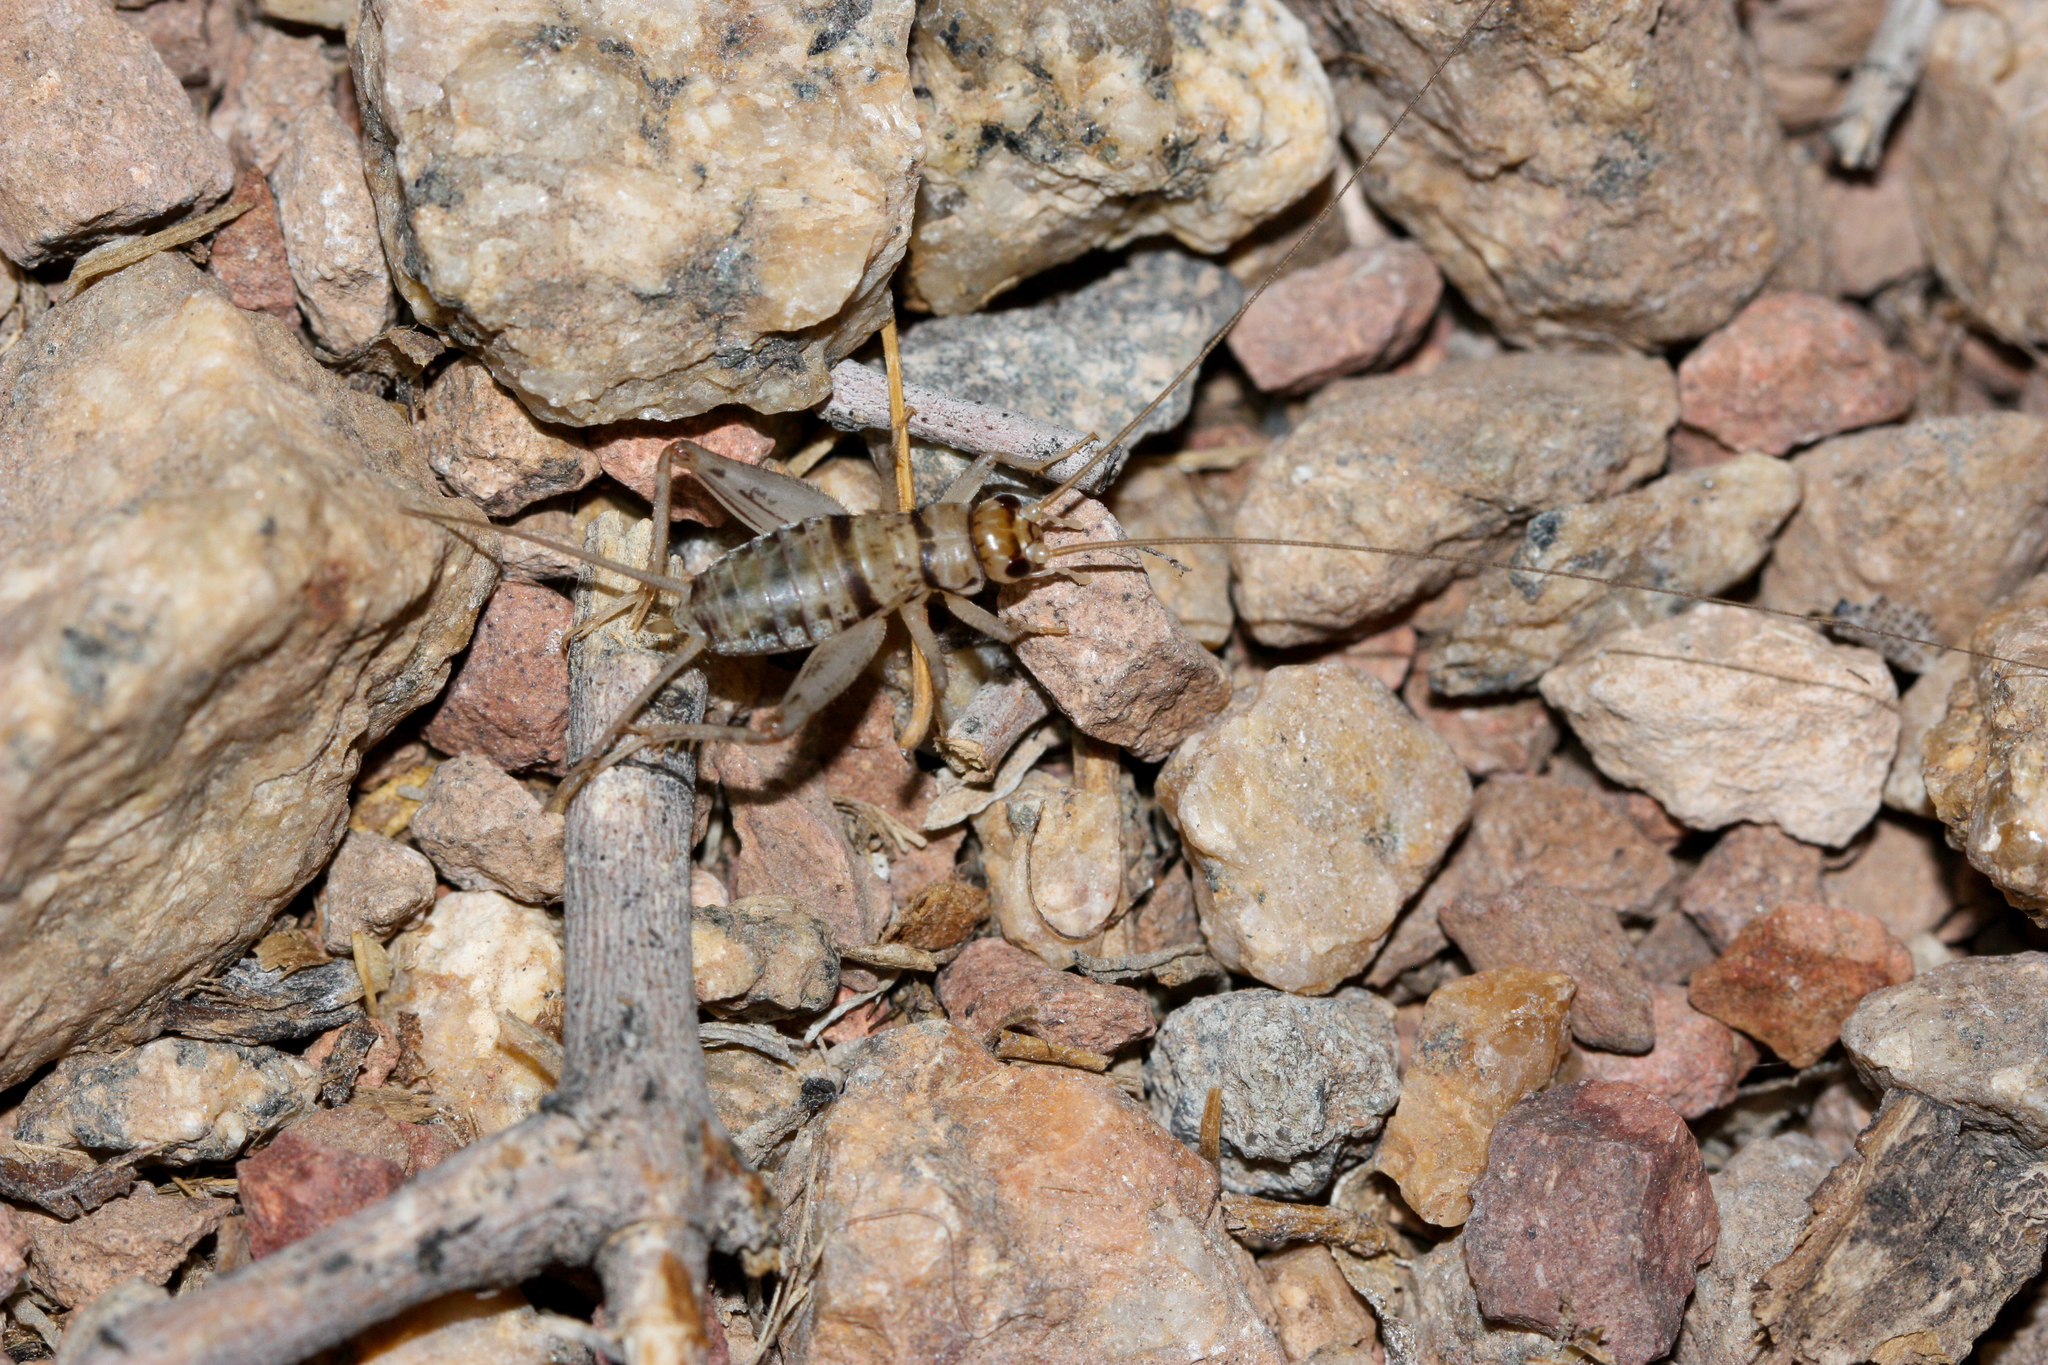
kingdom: Animalia
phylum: Arthropoda
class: Insecta
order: Orthoptera
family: Gryllidae
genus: Gryllodes
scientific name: Gryllodes sigillatus
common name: Tropical house cricket
